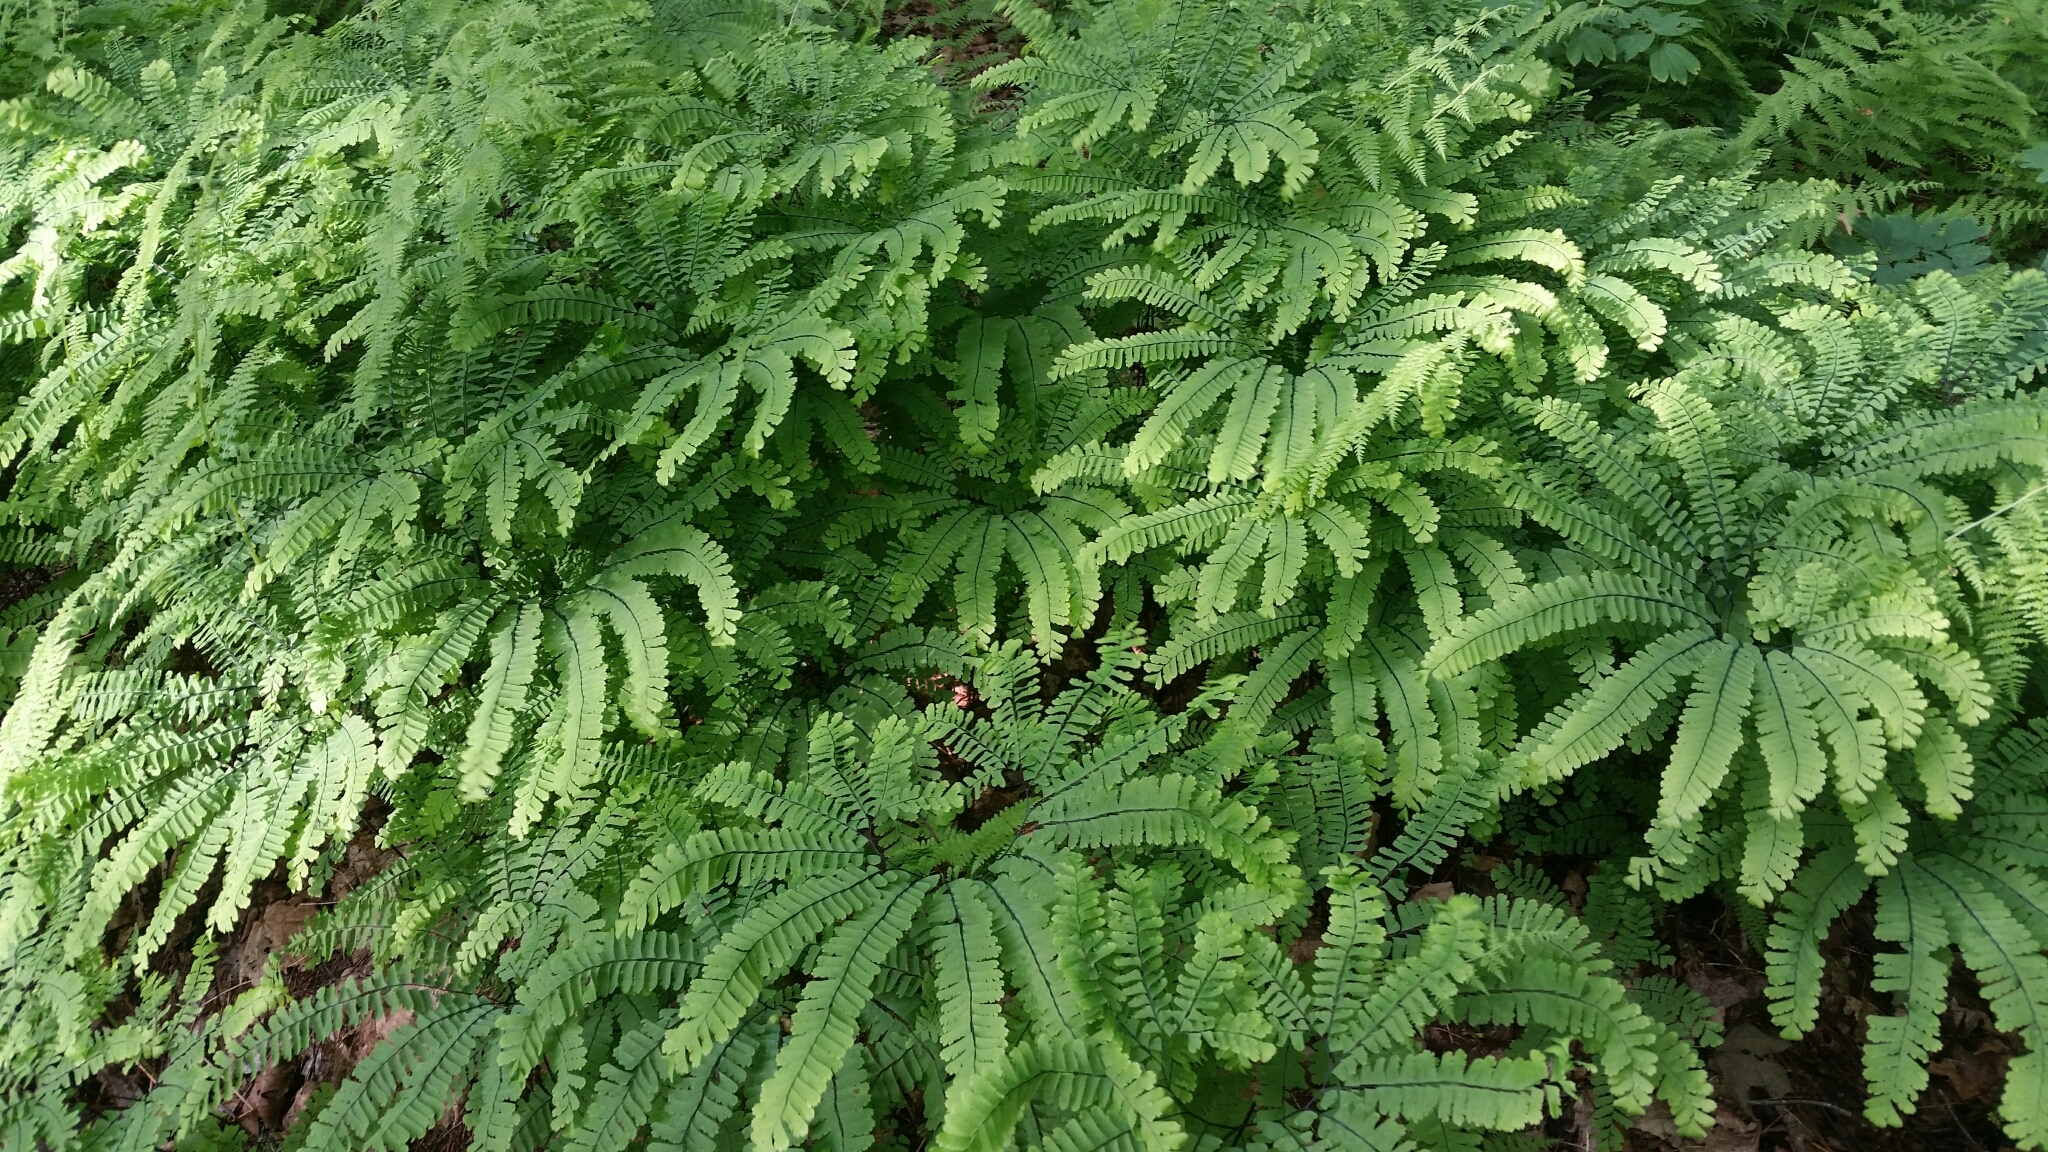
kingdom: Plantae
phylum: Tracheophyta
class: Polypodiopsida
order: Polypodiales
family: Pteridaceae
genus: Adiantum
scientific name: Adiantum pedatum
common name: Five-finger fern
